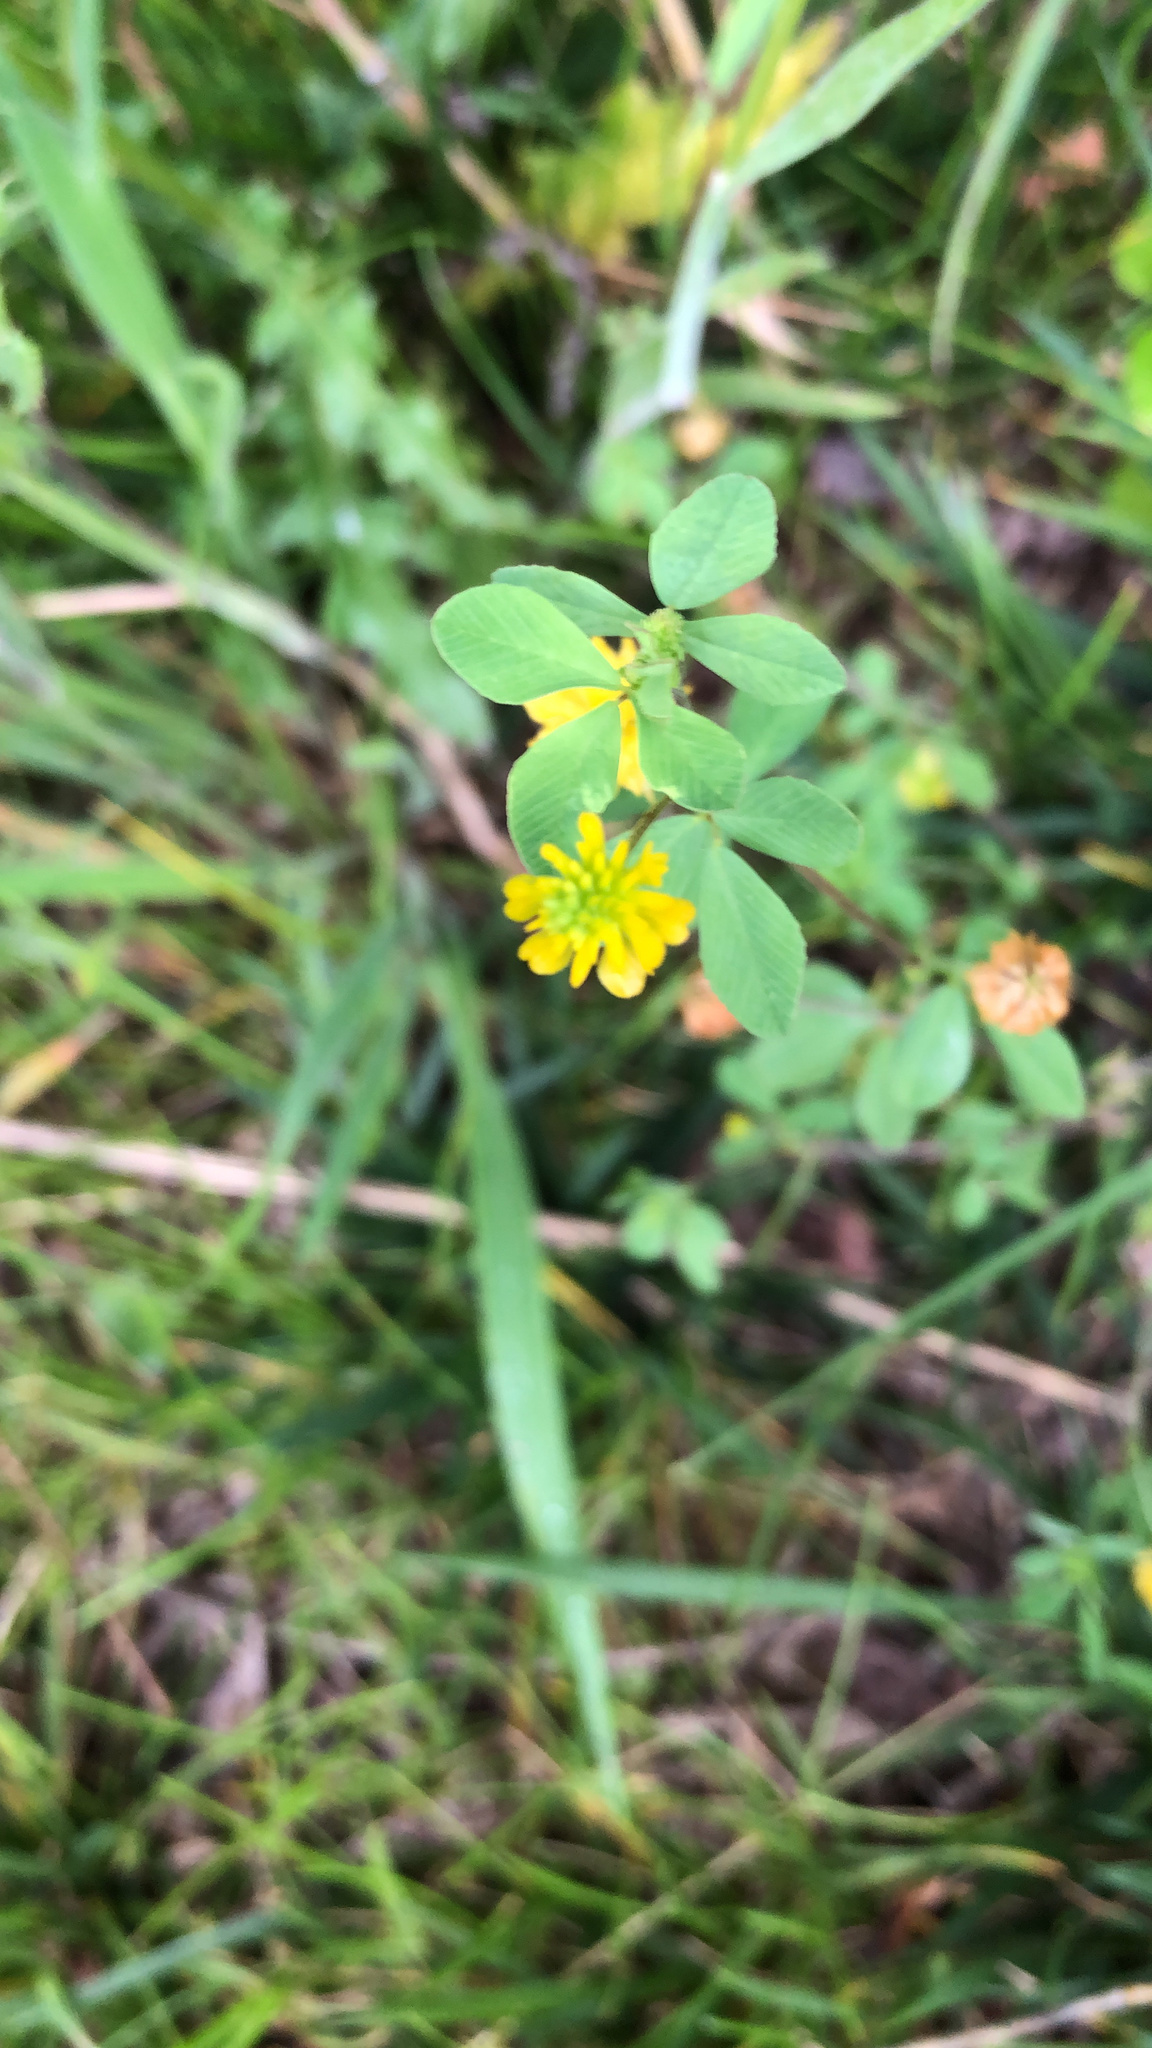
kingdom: Plantae
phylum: Tracheophyta
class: Magnoliopsida
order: Fabales
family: Fabaceae
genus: Trifolium
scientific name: Trifolium campestre
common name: Field clover
